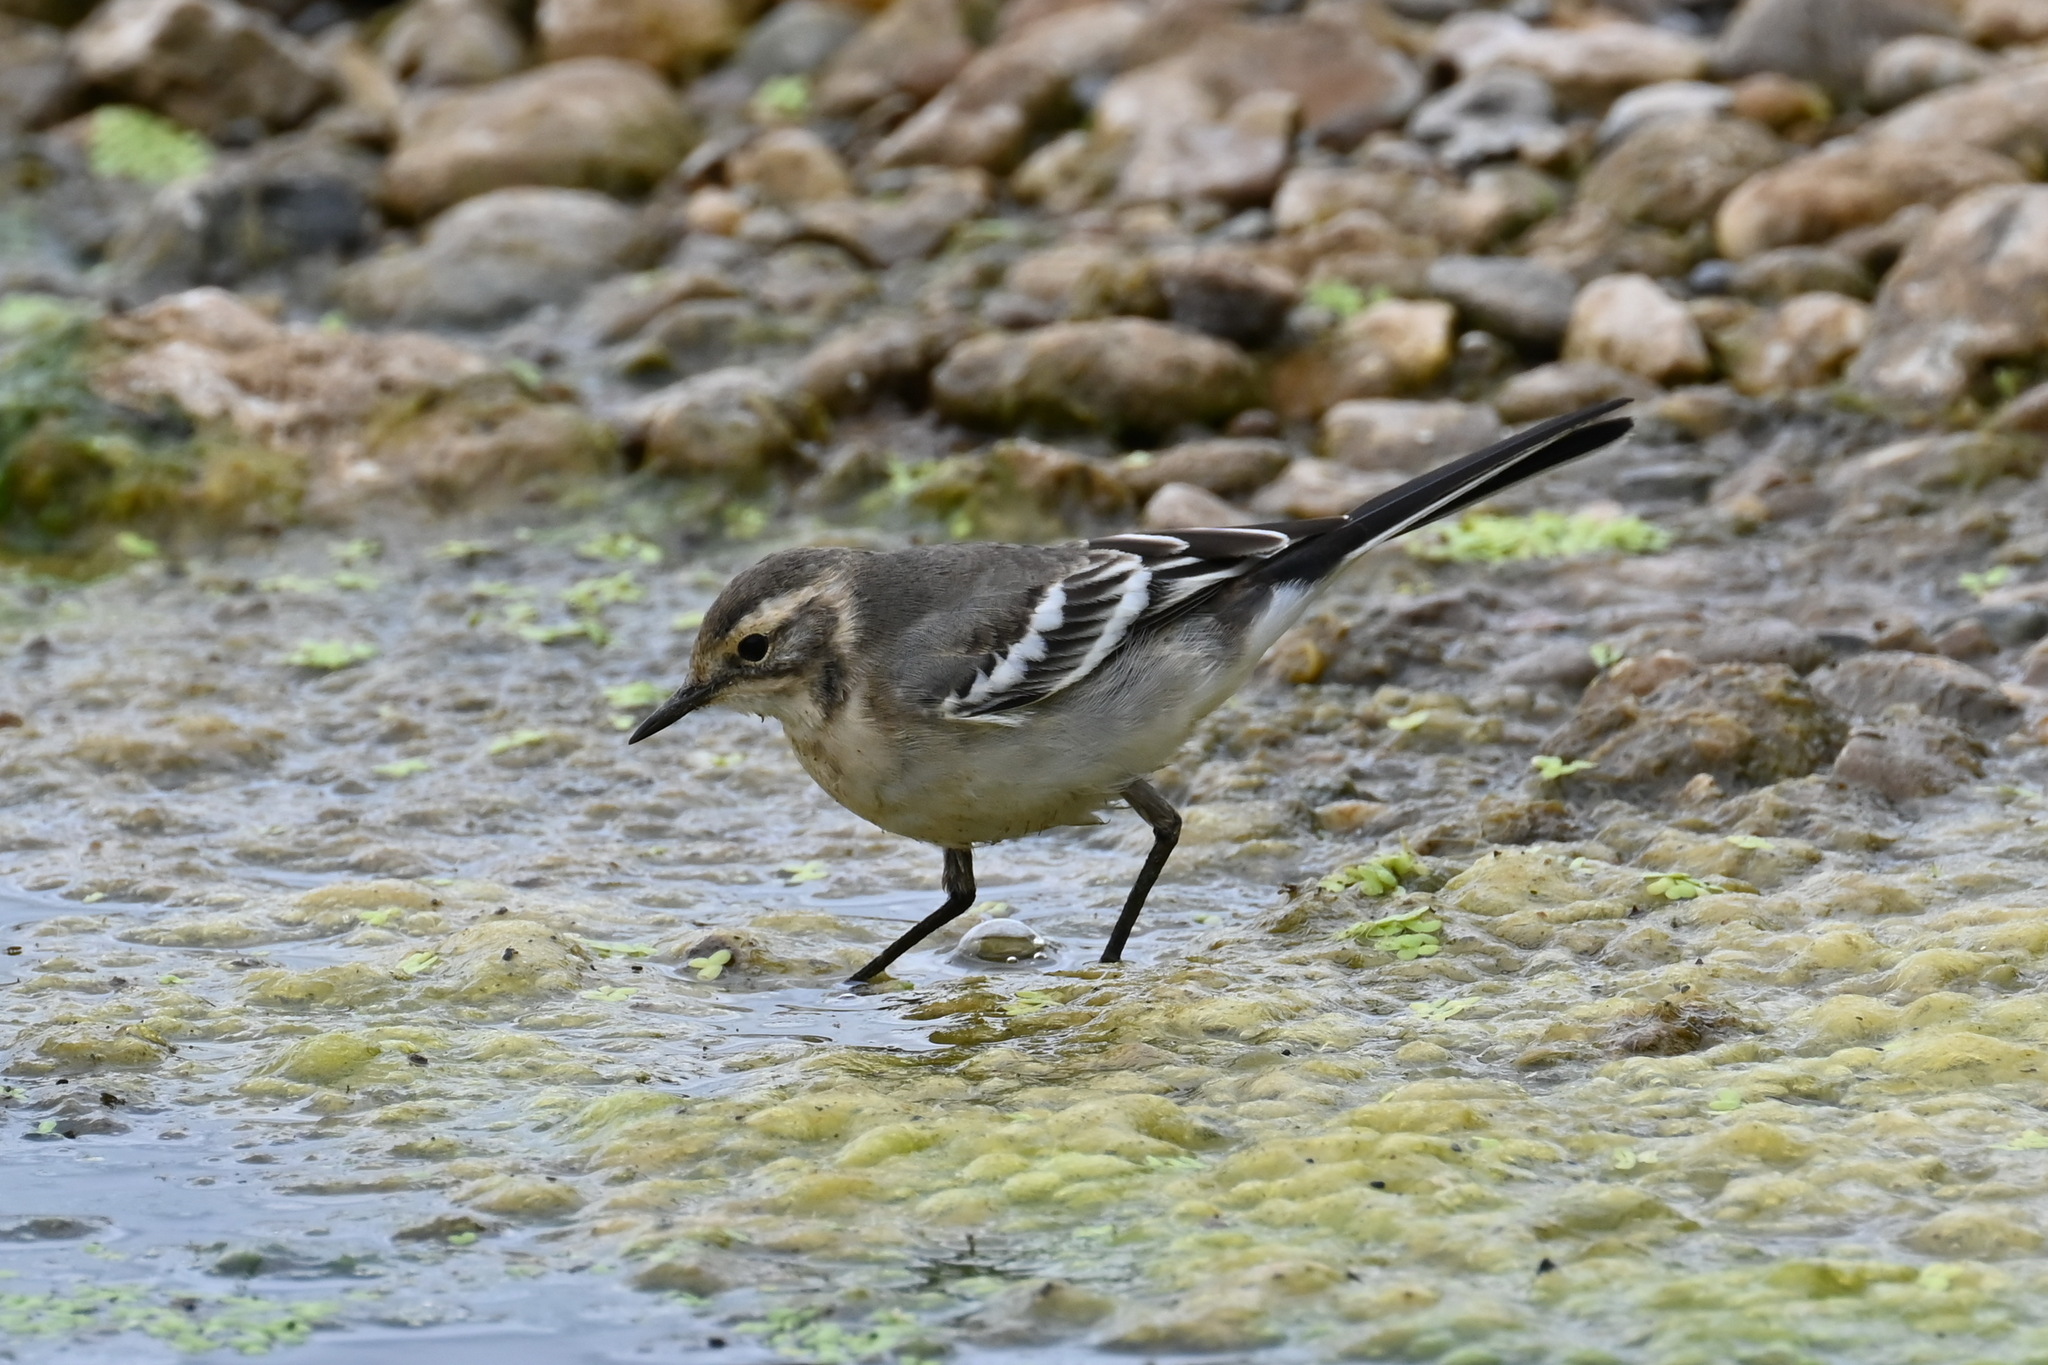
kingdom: Animalia
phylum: Chordata
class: Aves
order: Passeriformes
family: Motacillidae
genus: Motacilla
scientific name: Motacilla citreola
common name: Citrine wagtail
